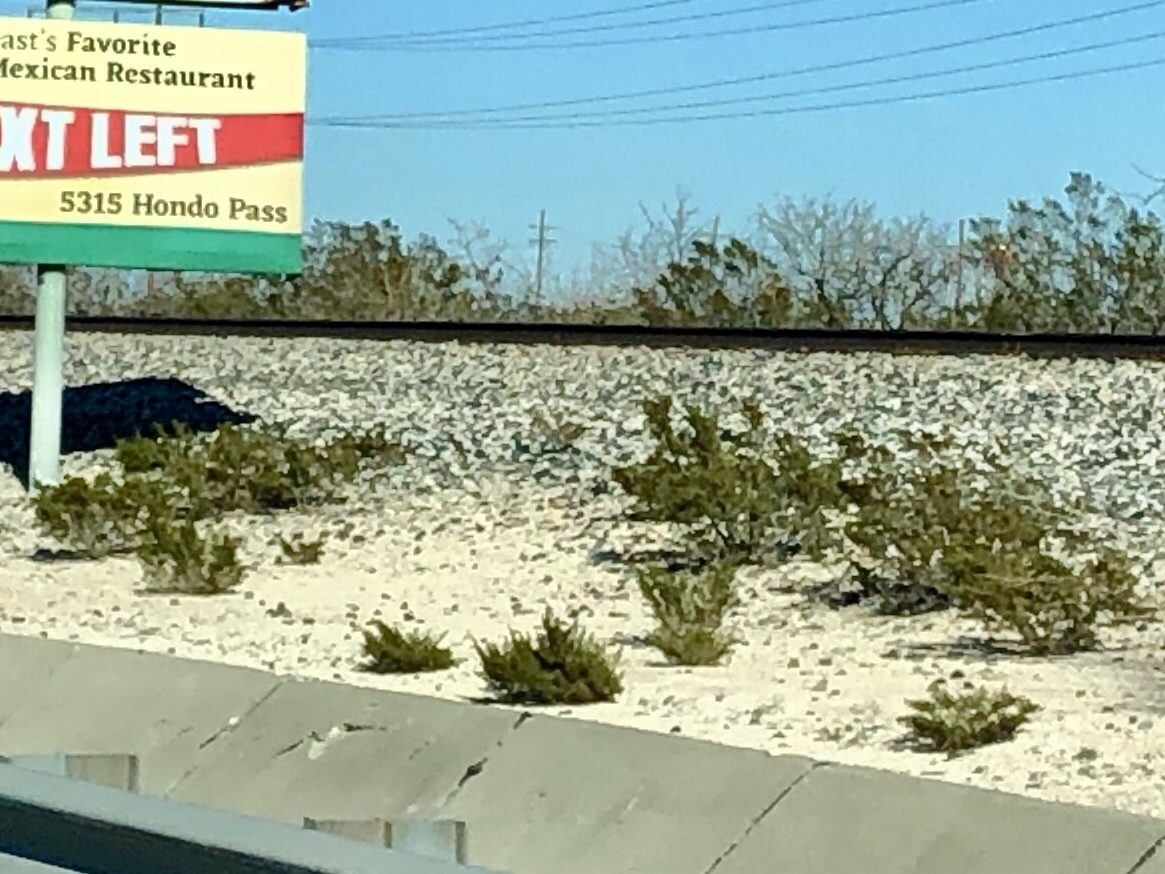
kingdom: Plantae
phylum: Tracheophyta
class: Magnoliopsida
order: Zygophyllales
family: Zygophyllaceae
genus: Larrea
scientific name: Larrea tridentata
